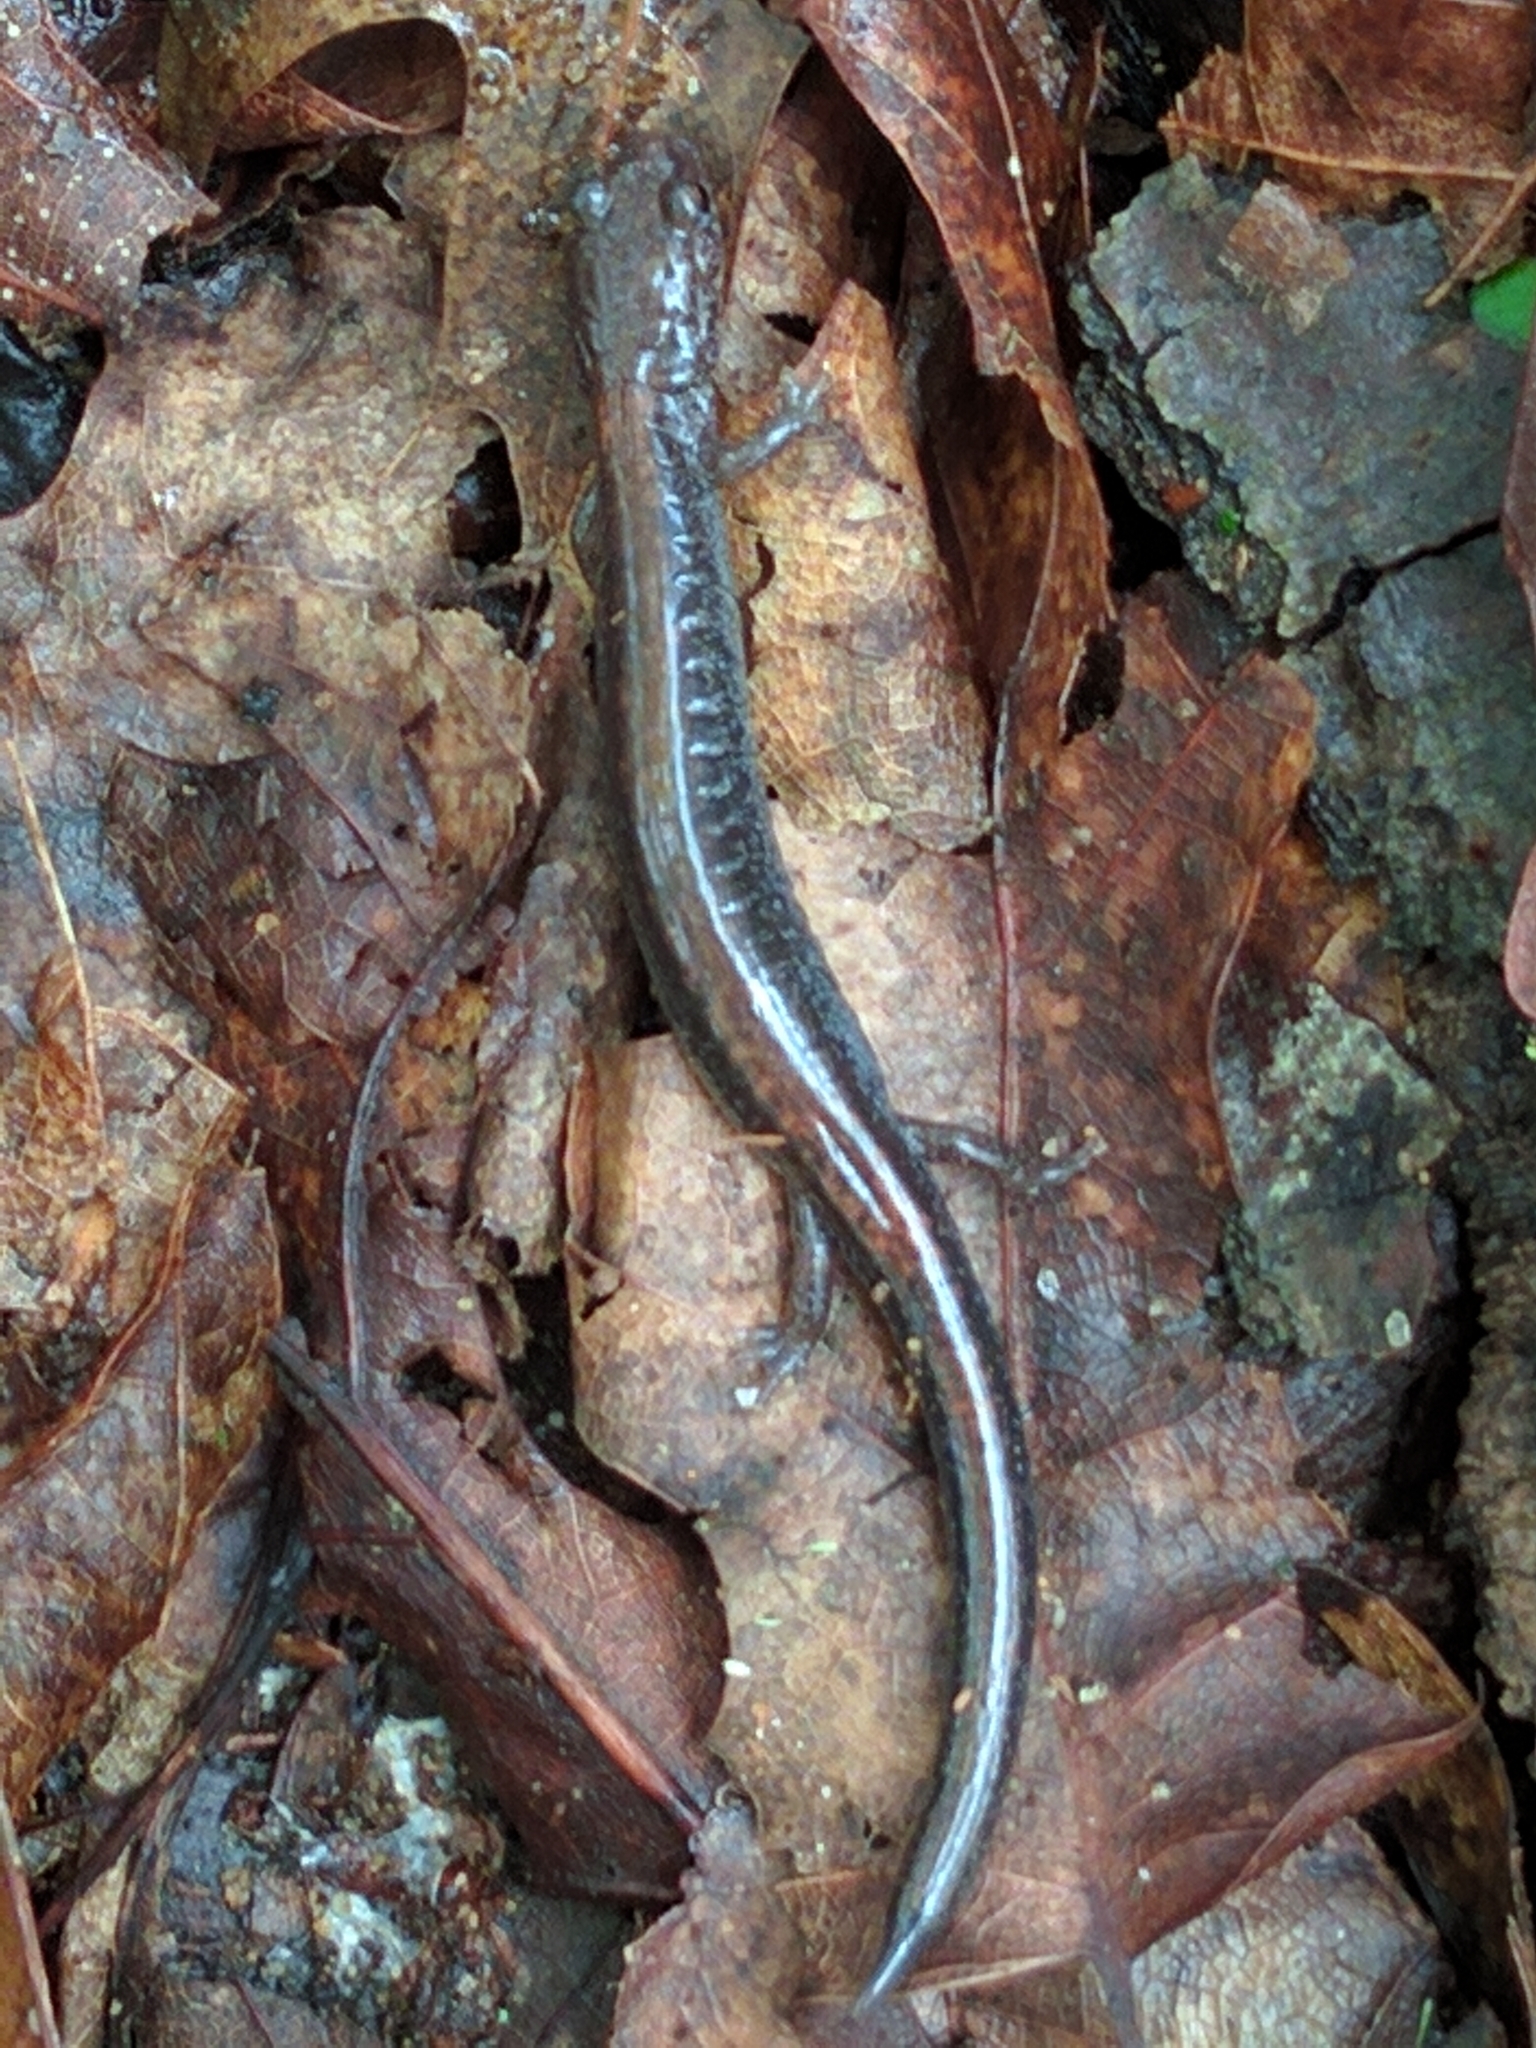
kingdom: Animalia
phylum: Chordata
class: Amphibia
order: Caudata
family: Plethodontidae
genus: Plethodon
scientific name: Plethodon cinereus
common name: Redback salamander
